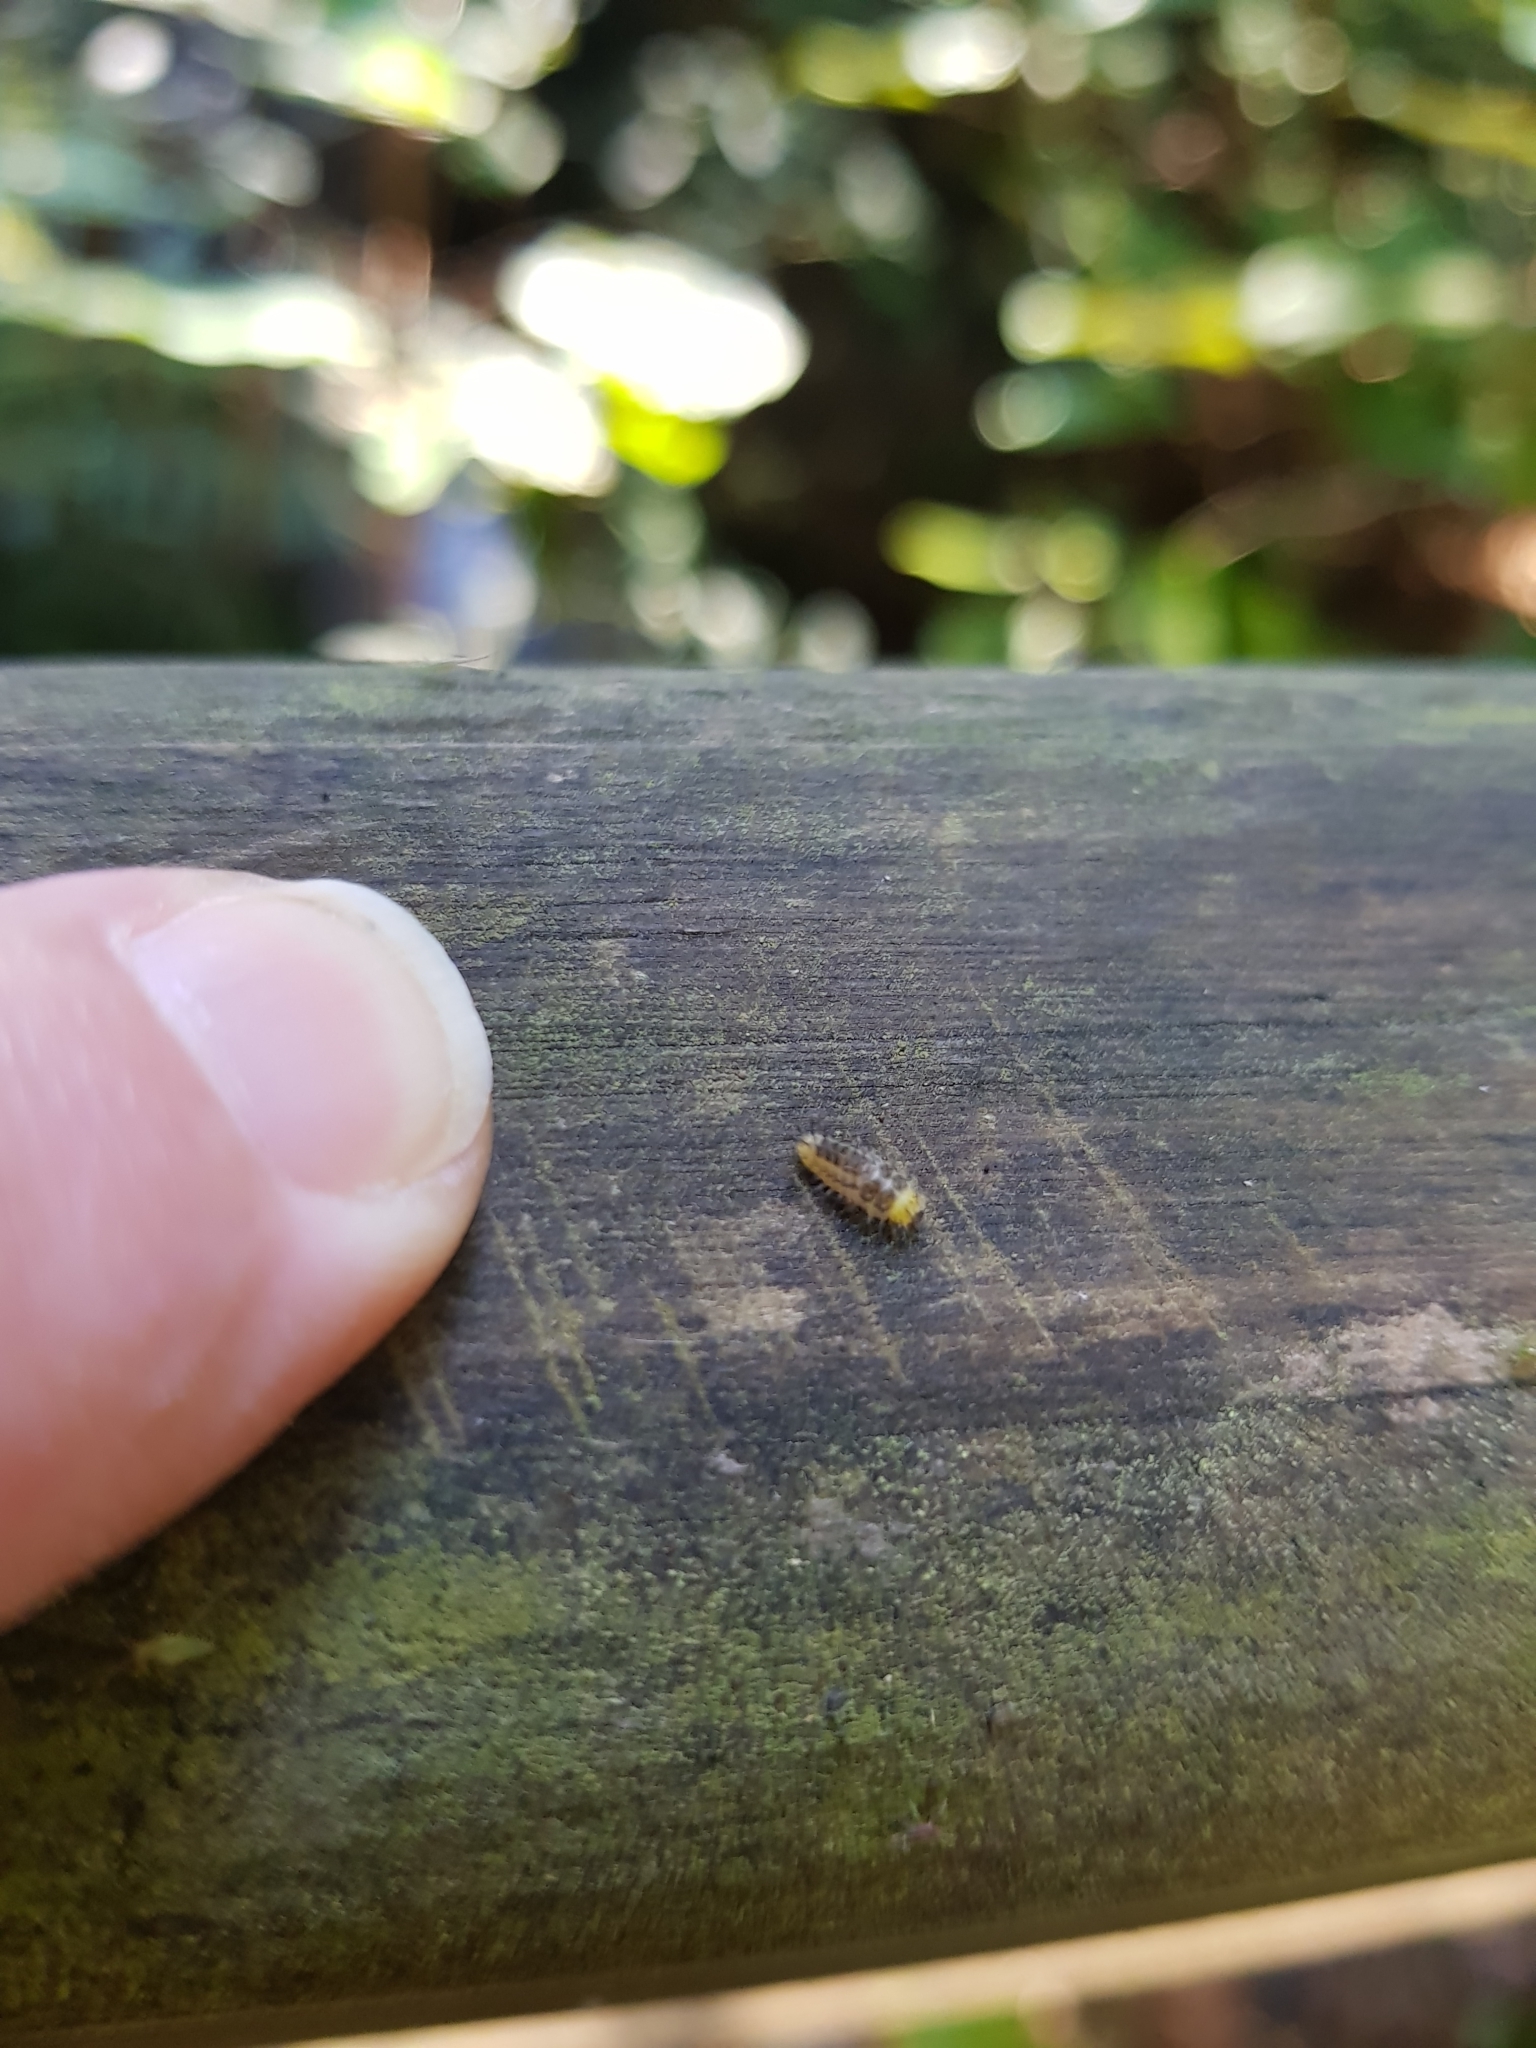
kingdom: Animalia
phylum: Arthropoda
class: Insecta
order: Coleoptera
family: Coccinellidae
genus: Halmus
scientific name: Halmus chalybeus
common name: Steel blue ladybird beetle
